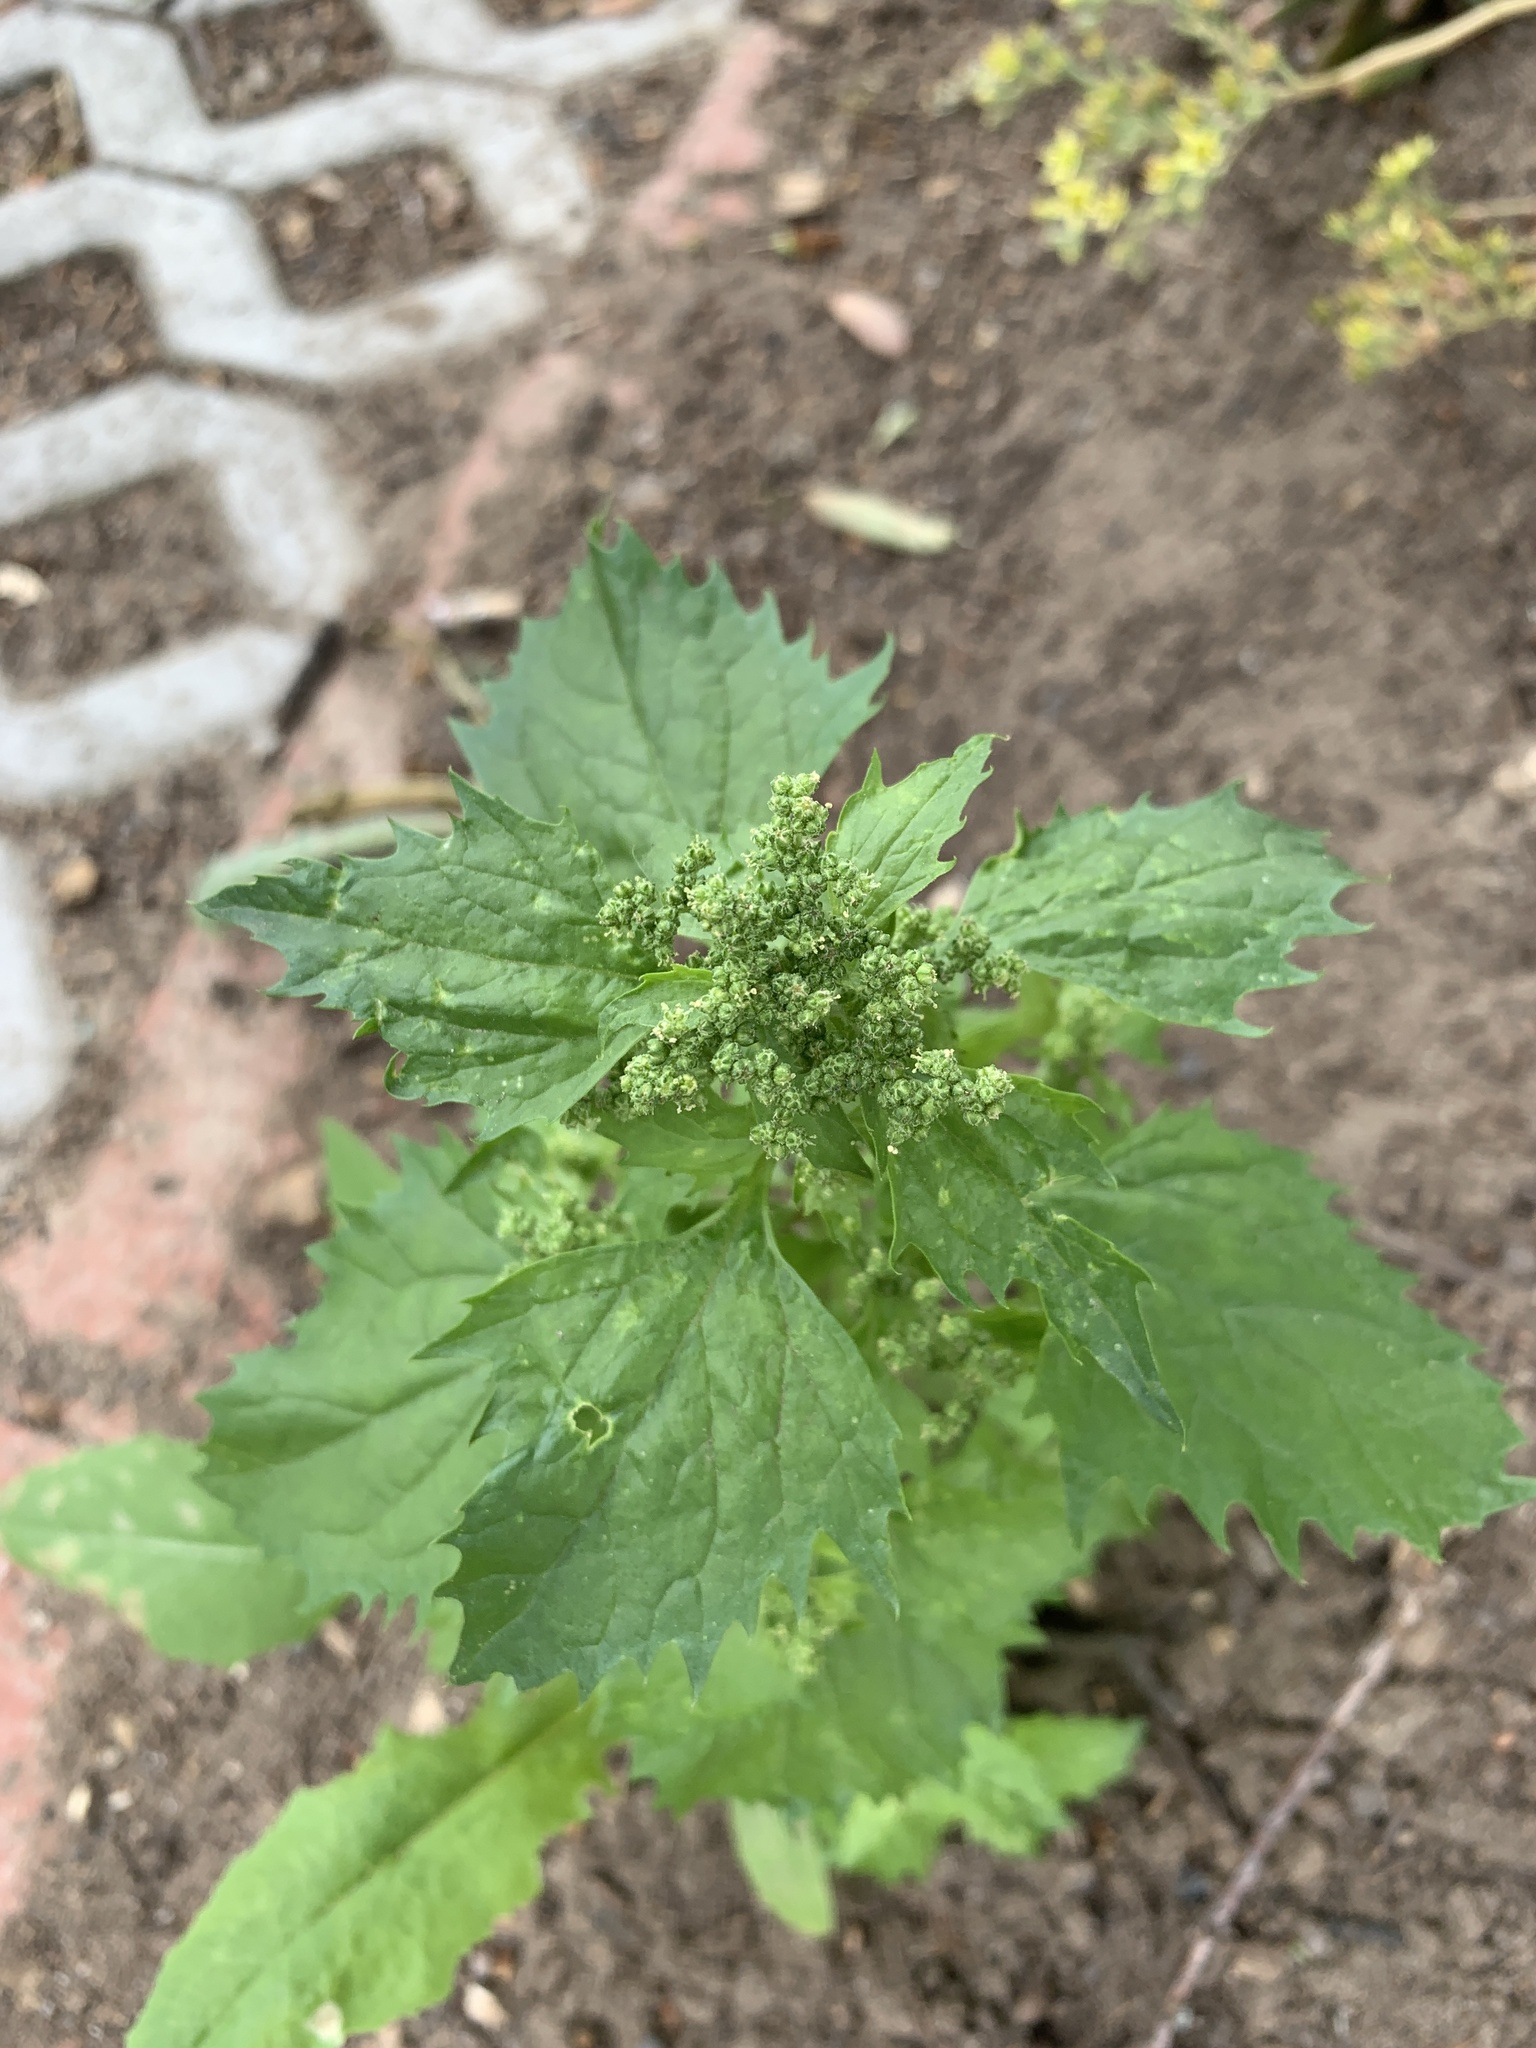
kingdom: Plantae
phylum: Tracheophyta
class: Magnoliopsida
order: Caryophyllales
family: Amaranthaceae
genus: Chenopodiastrum
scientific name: Chenopodiastrum murale
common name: Sowbane
